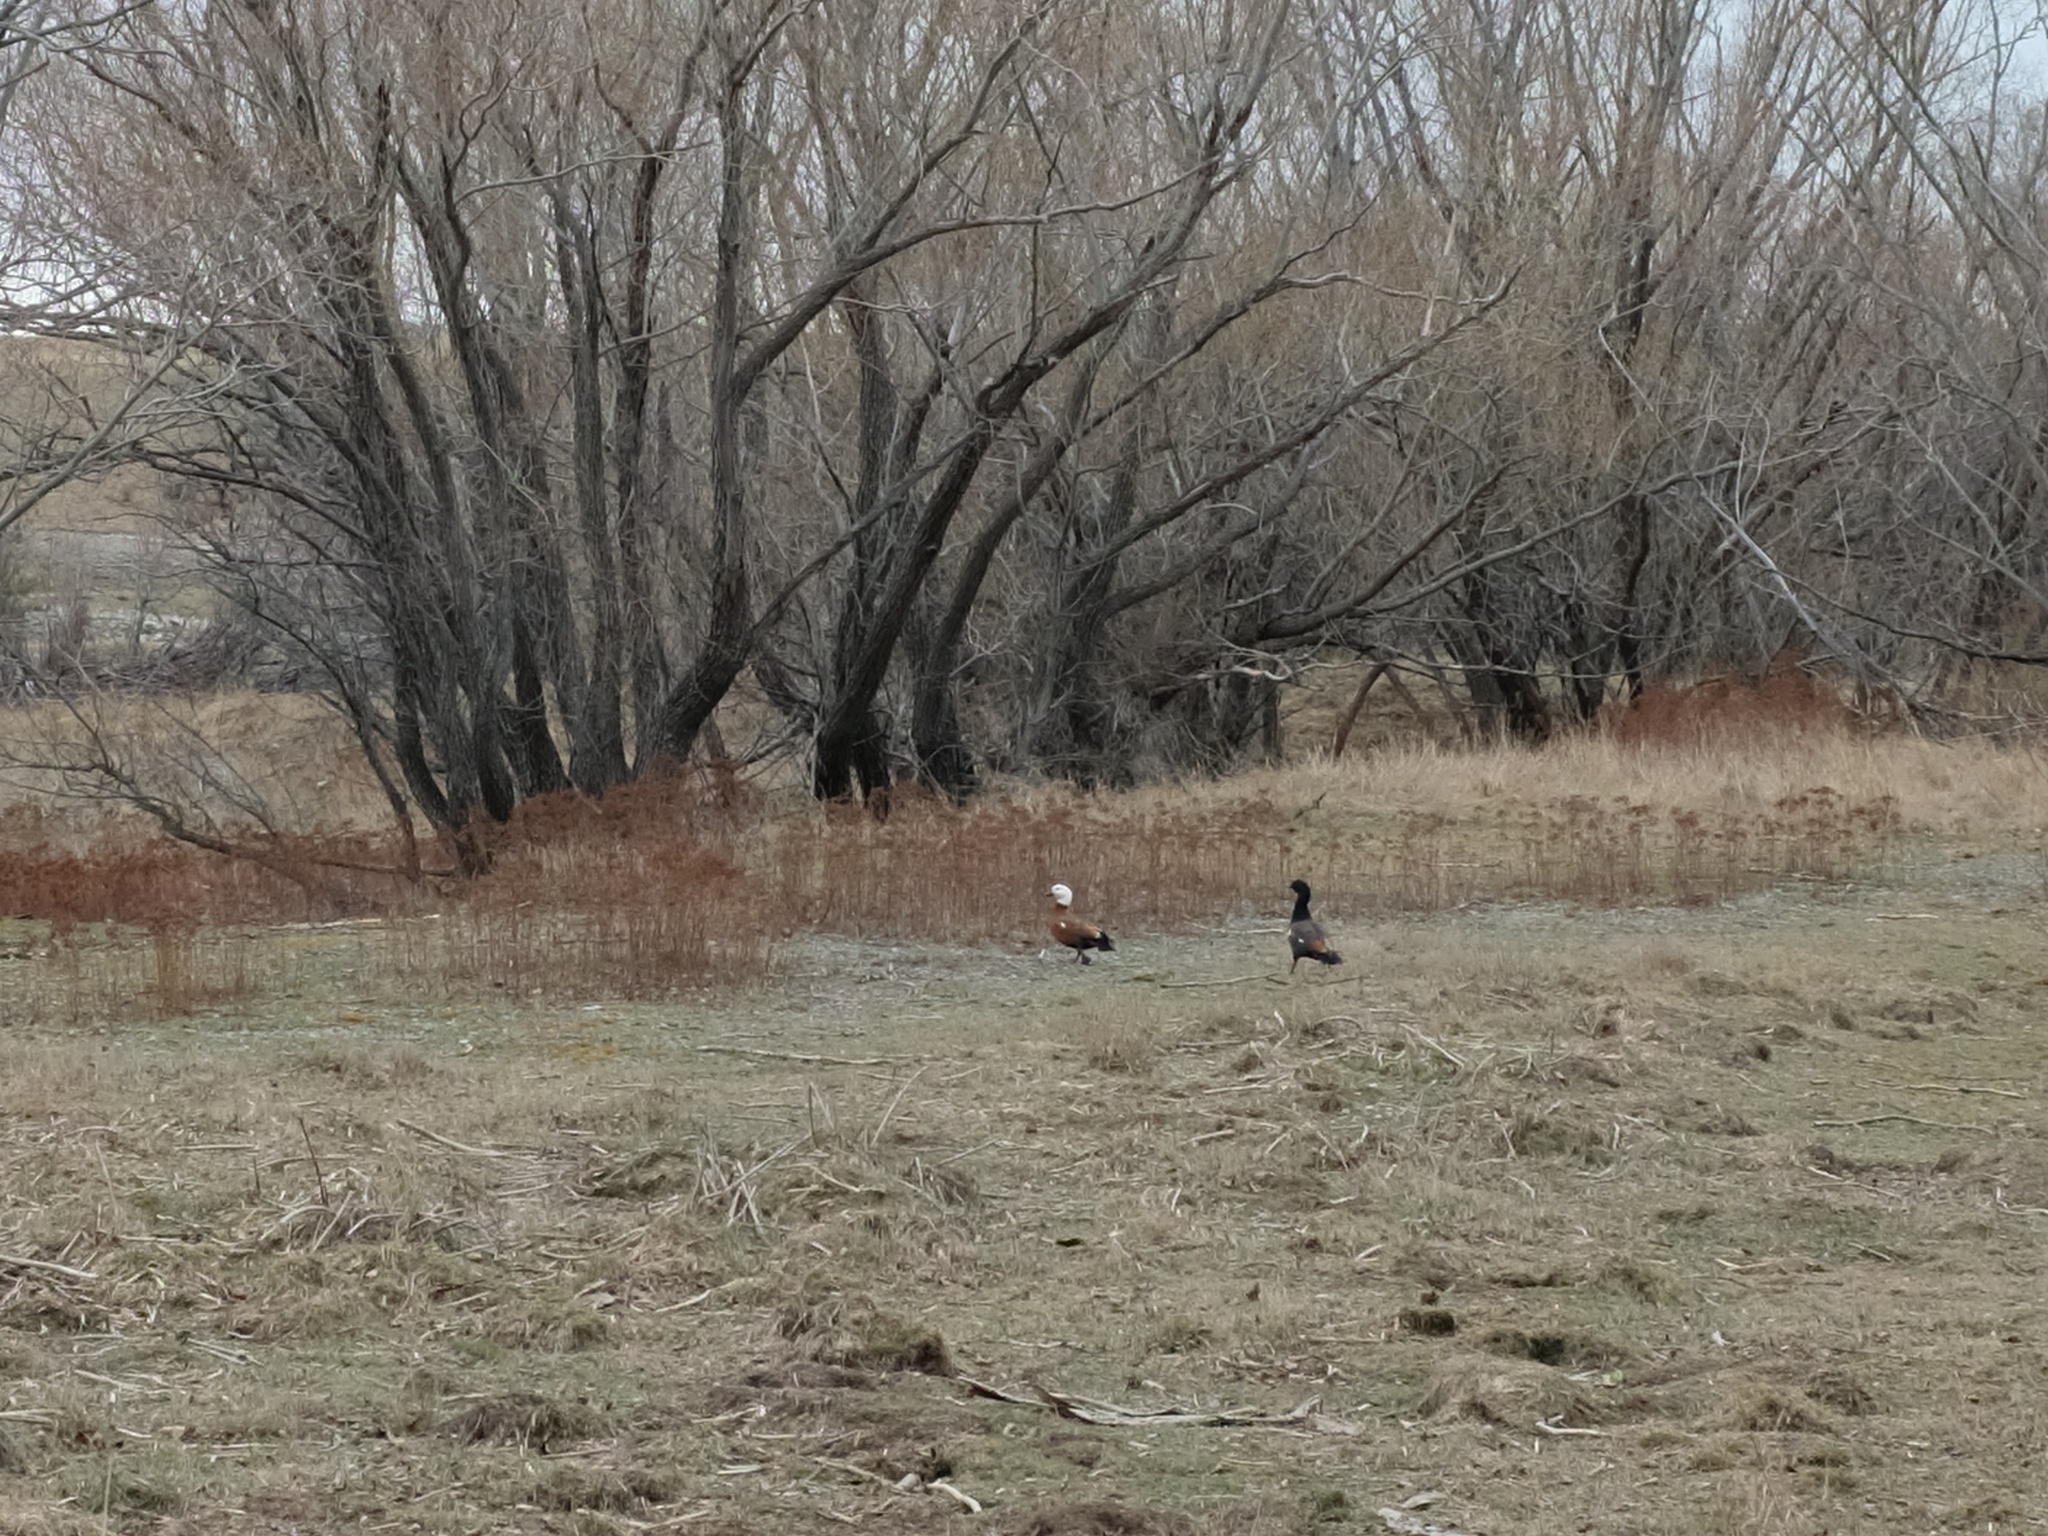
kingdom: Animalia
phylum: Chordata
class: Aves
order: Anseriformes
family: Anatidae
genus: Tadorna
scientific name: Tadorna variegata
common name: Paradise shelduck
